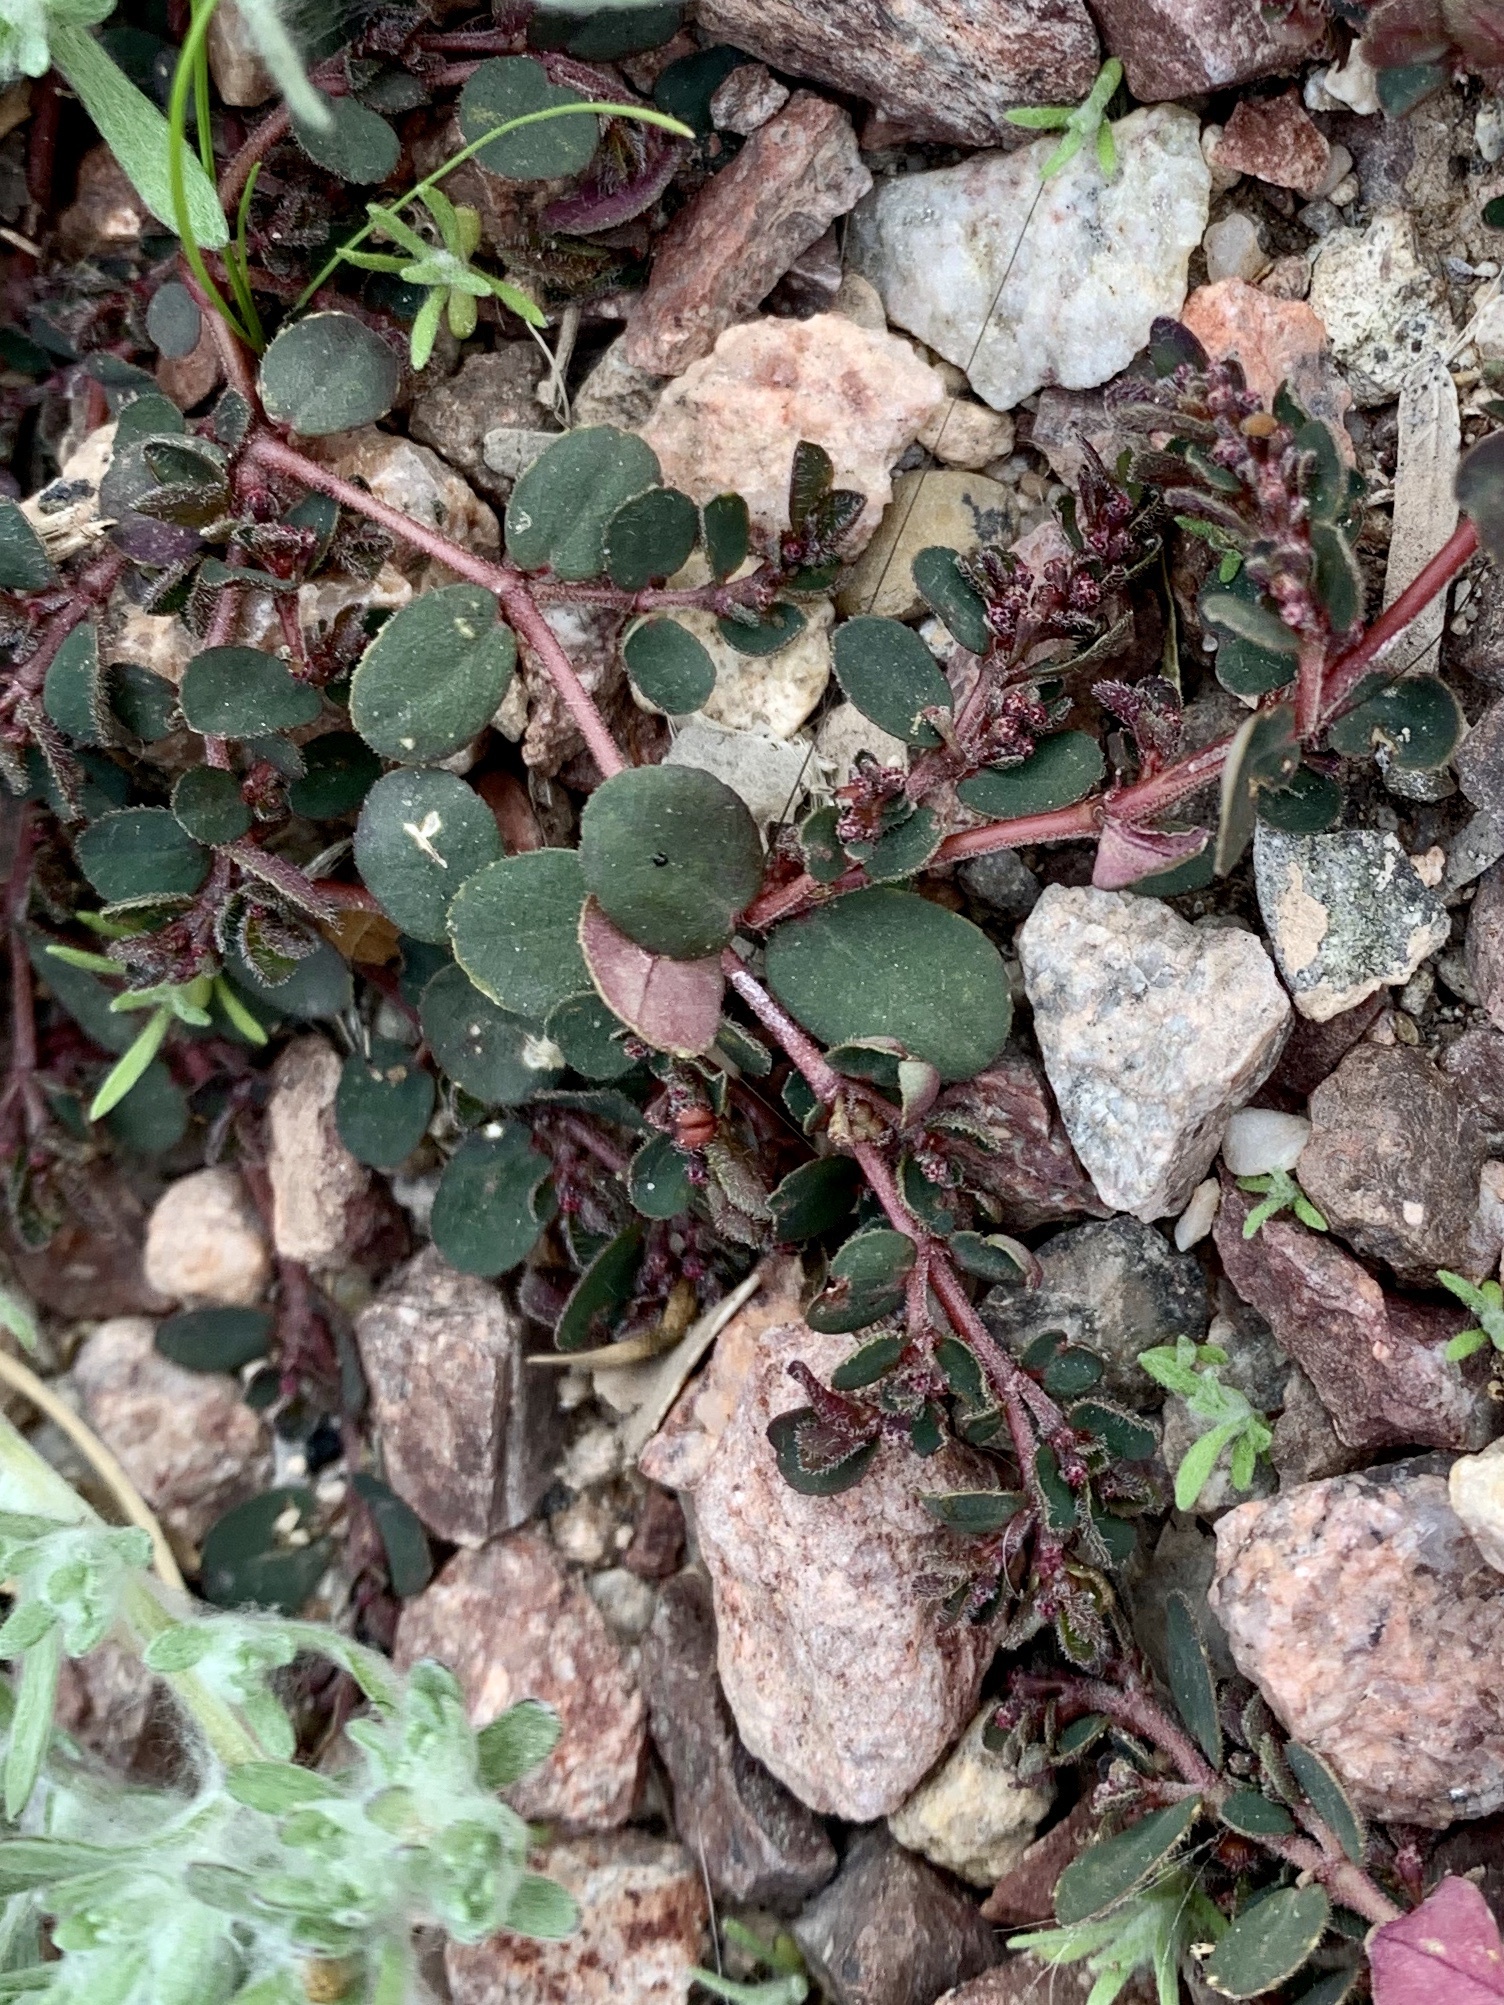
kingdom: Plantae
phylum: Tracheophyta
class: Magnoliopsida
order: Malpighiales
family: Euphorbiaceae
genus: Euphorbia
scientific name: Euphorbia prostrata
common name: Prostrate sandmat
